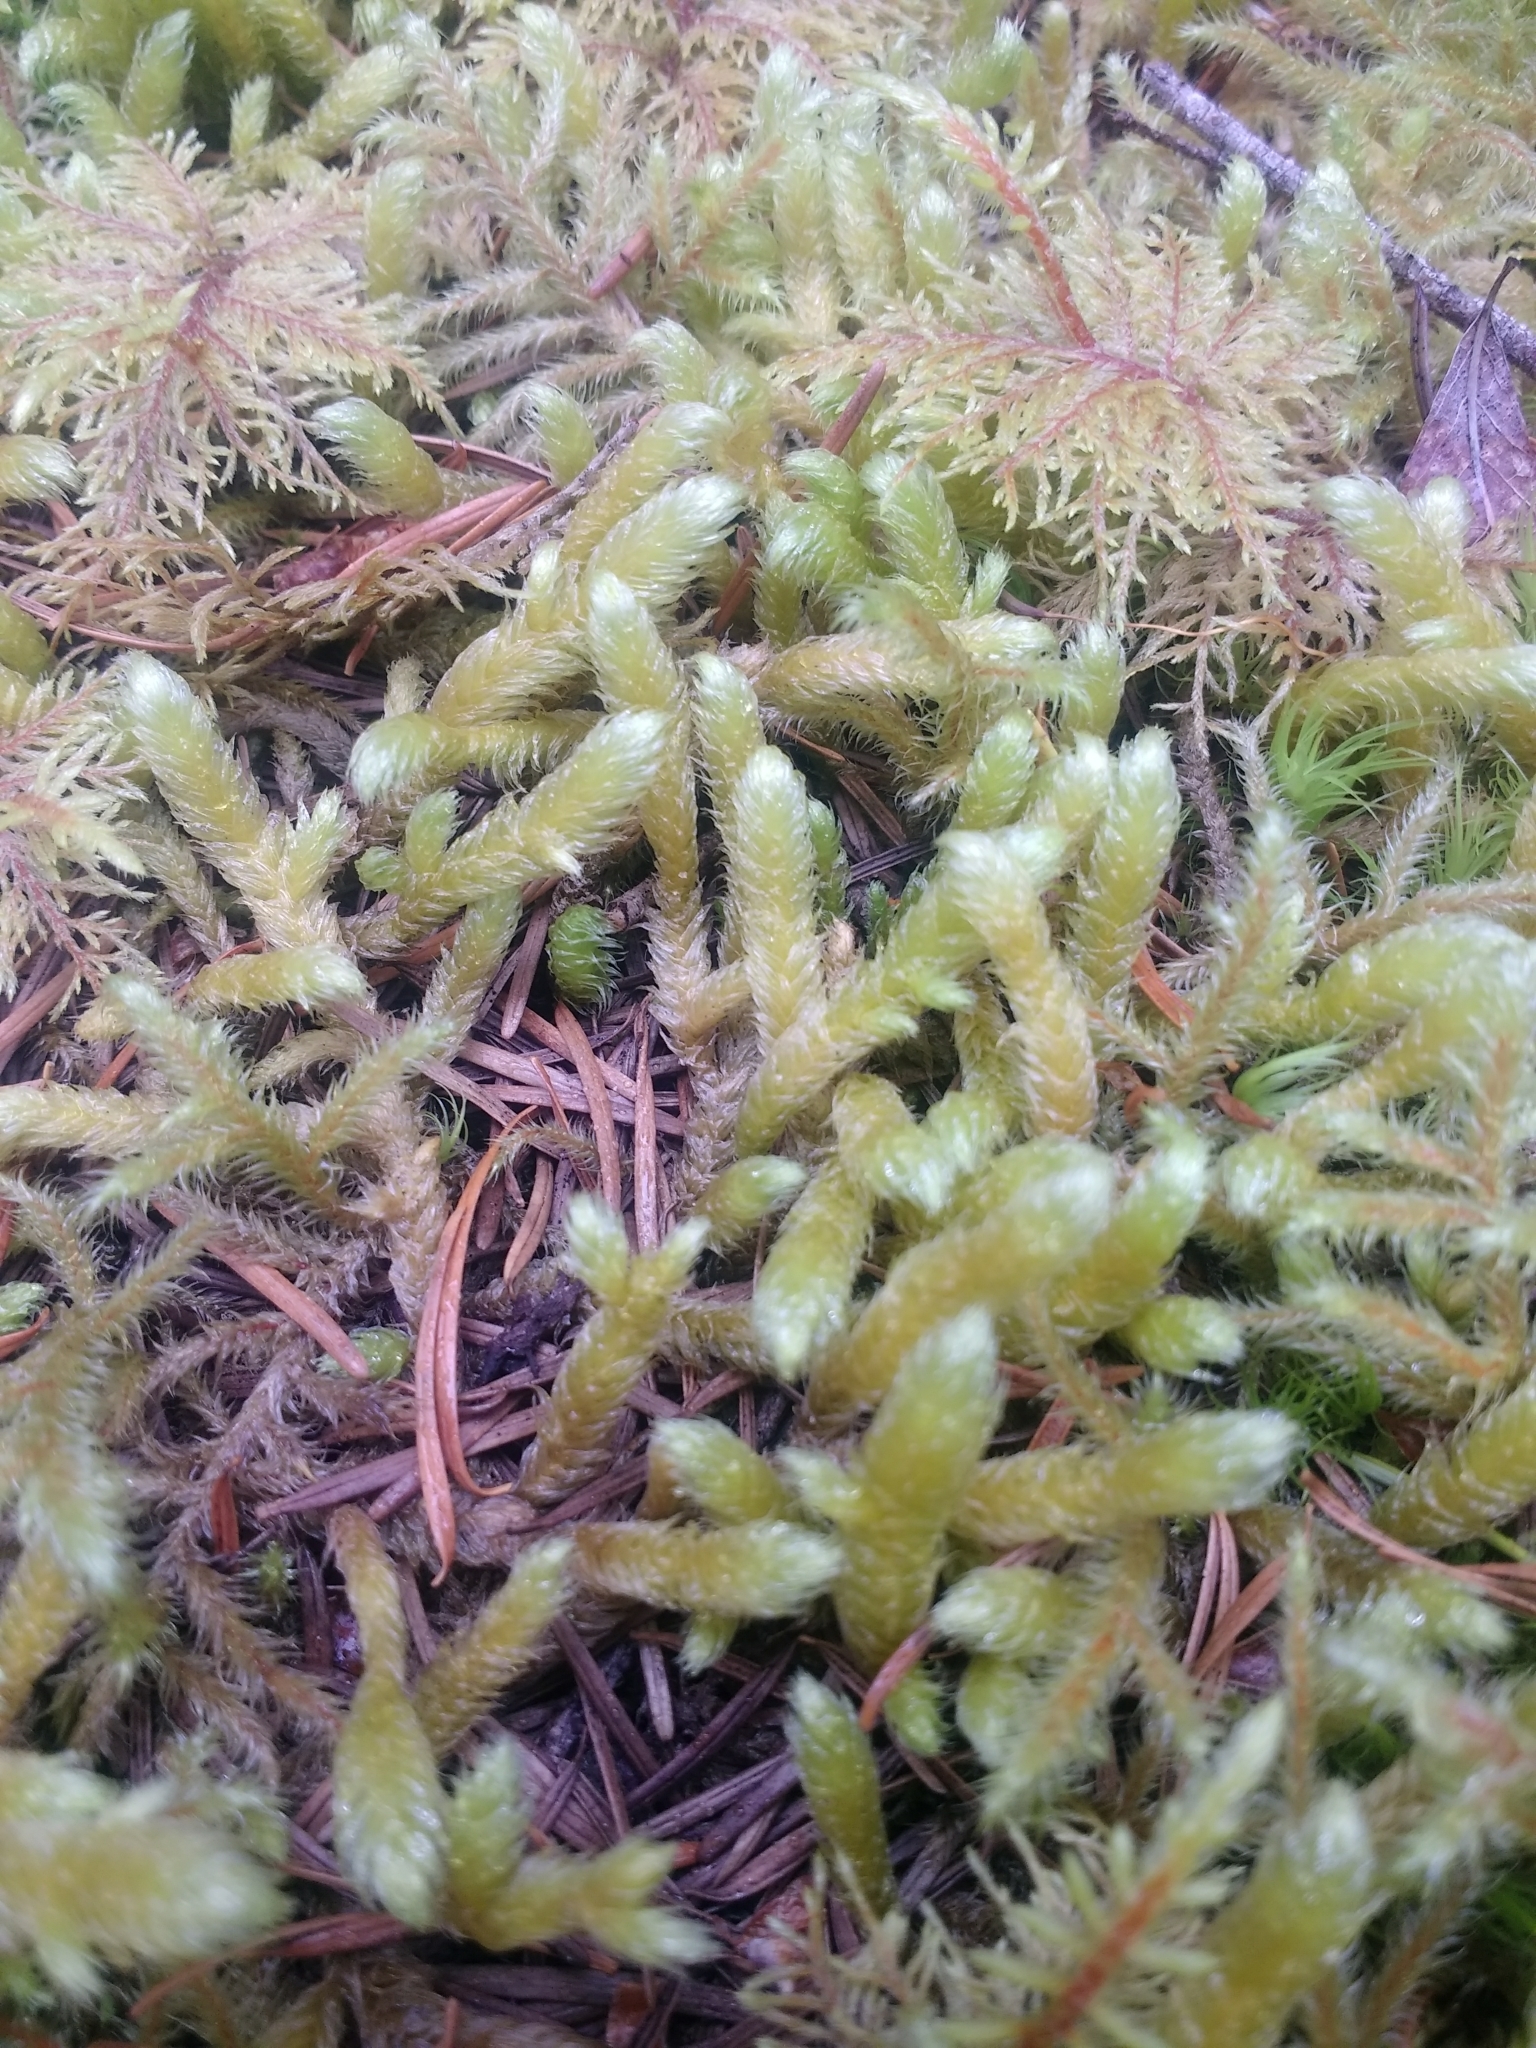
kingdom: Plantae
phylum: Bryophyta
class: Bryopsida
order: Hypnales
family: Hylocomiaceae
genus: Rhytidiopsis
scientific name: Rhytidiopsis robusta
